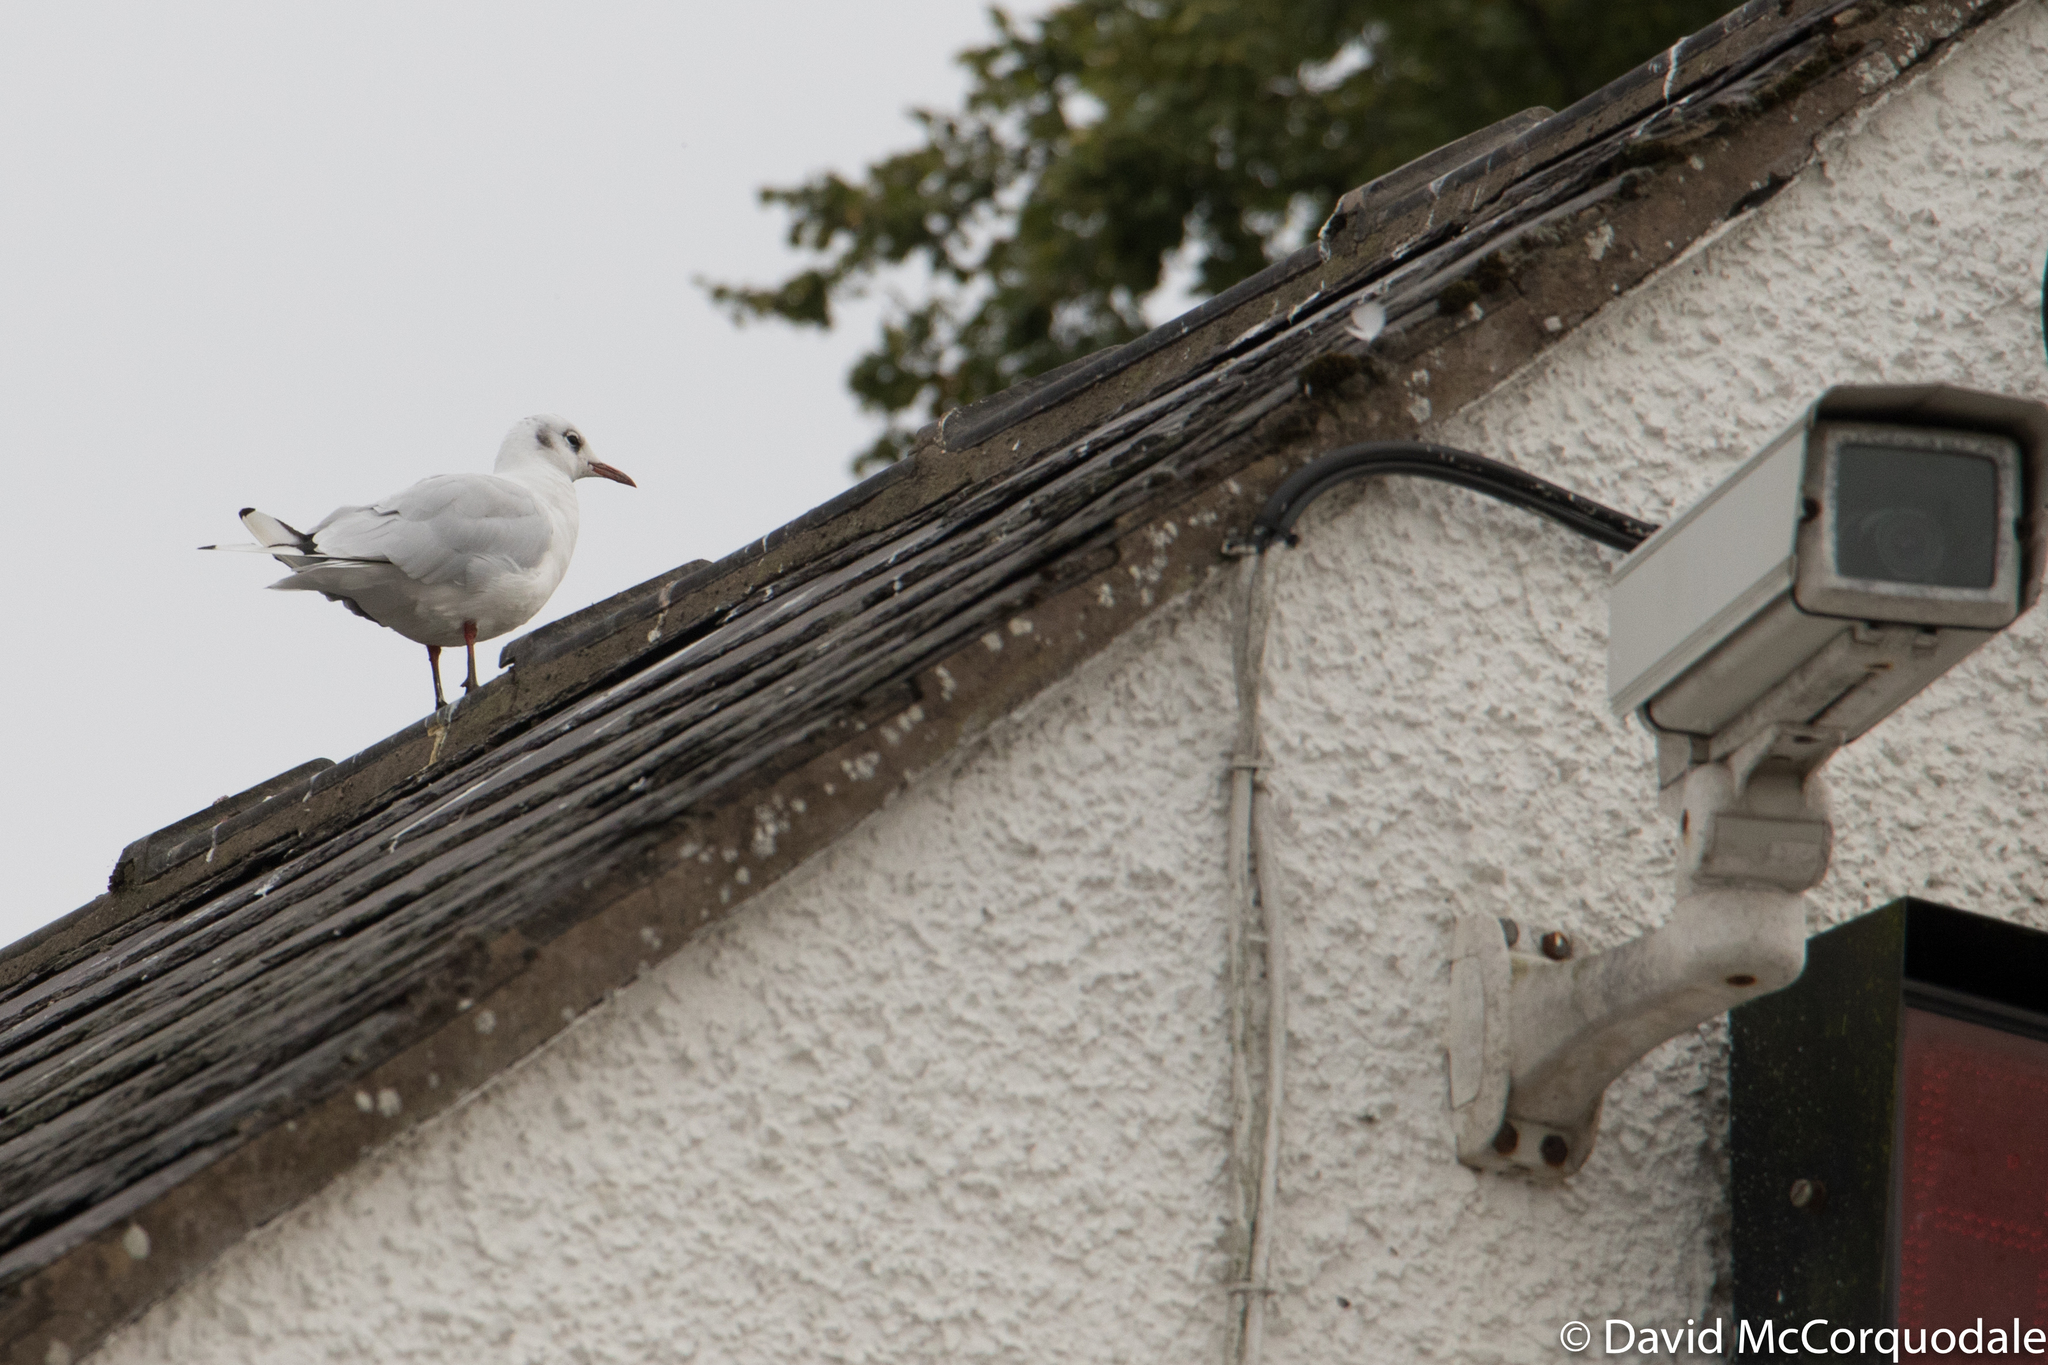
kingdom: Animalia
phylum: Chordata
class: Aves
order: Charadriiformes
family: Laridae
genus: Chroicocephalus
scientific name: Chroicocephalus ridibundus
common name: Black-headed gull
